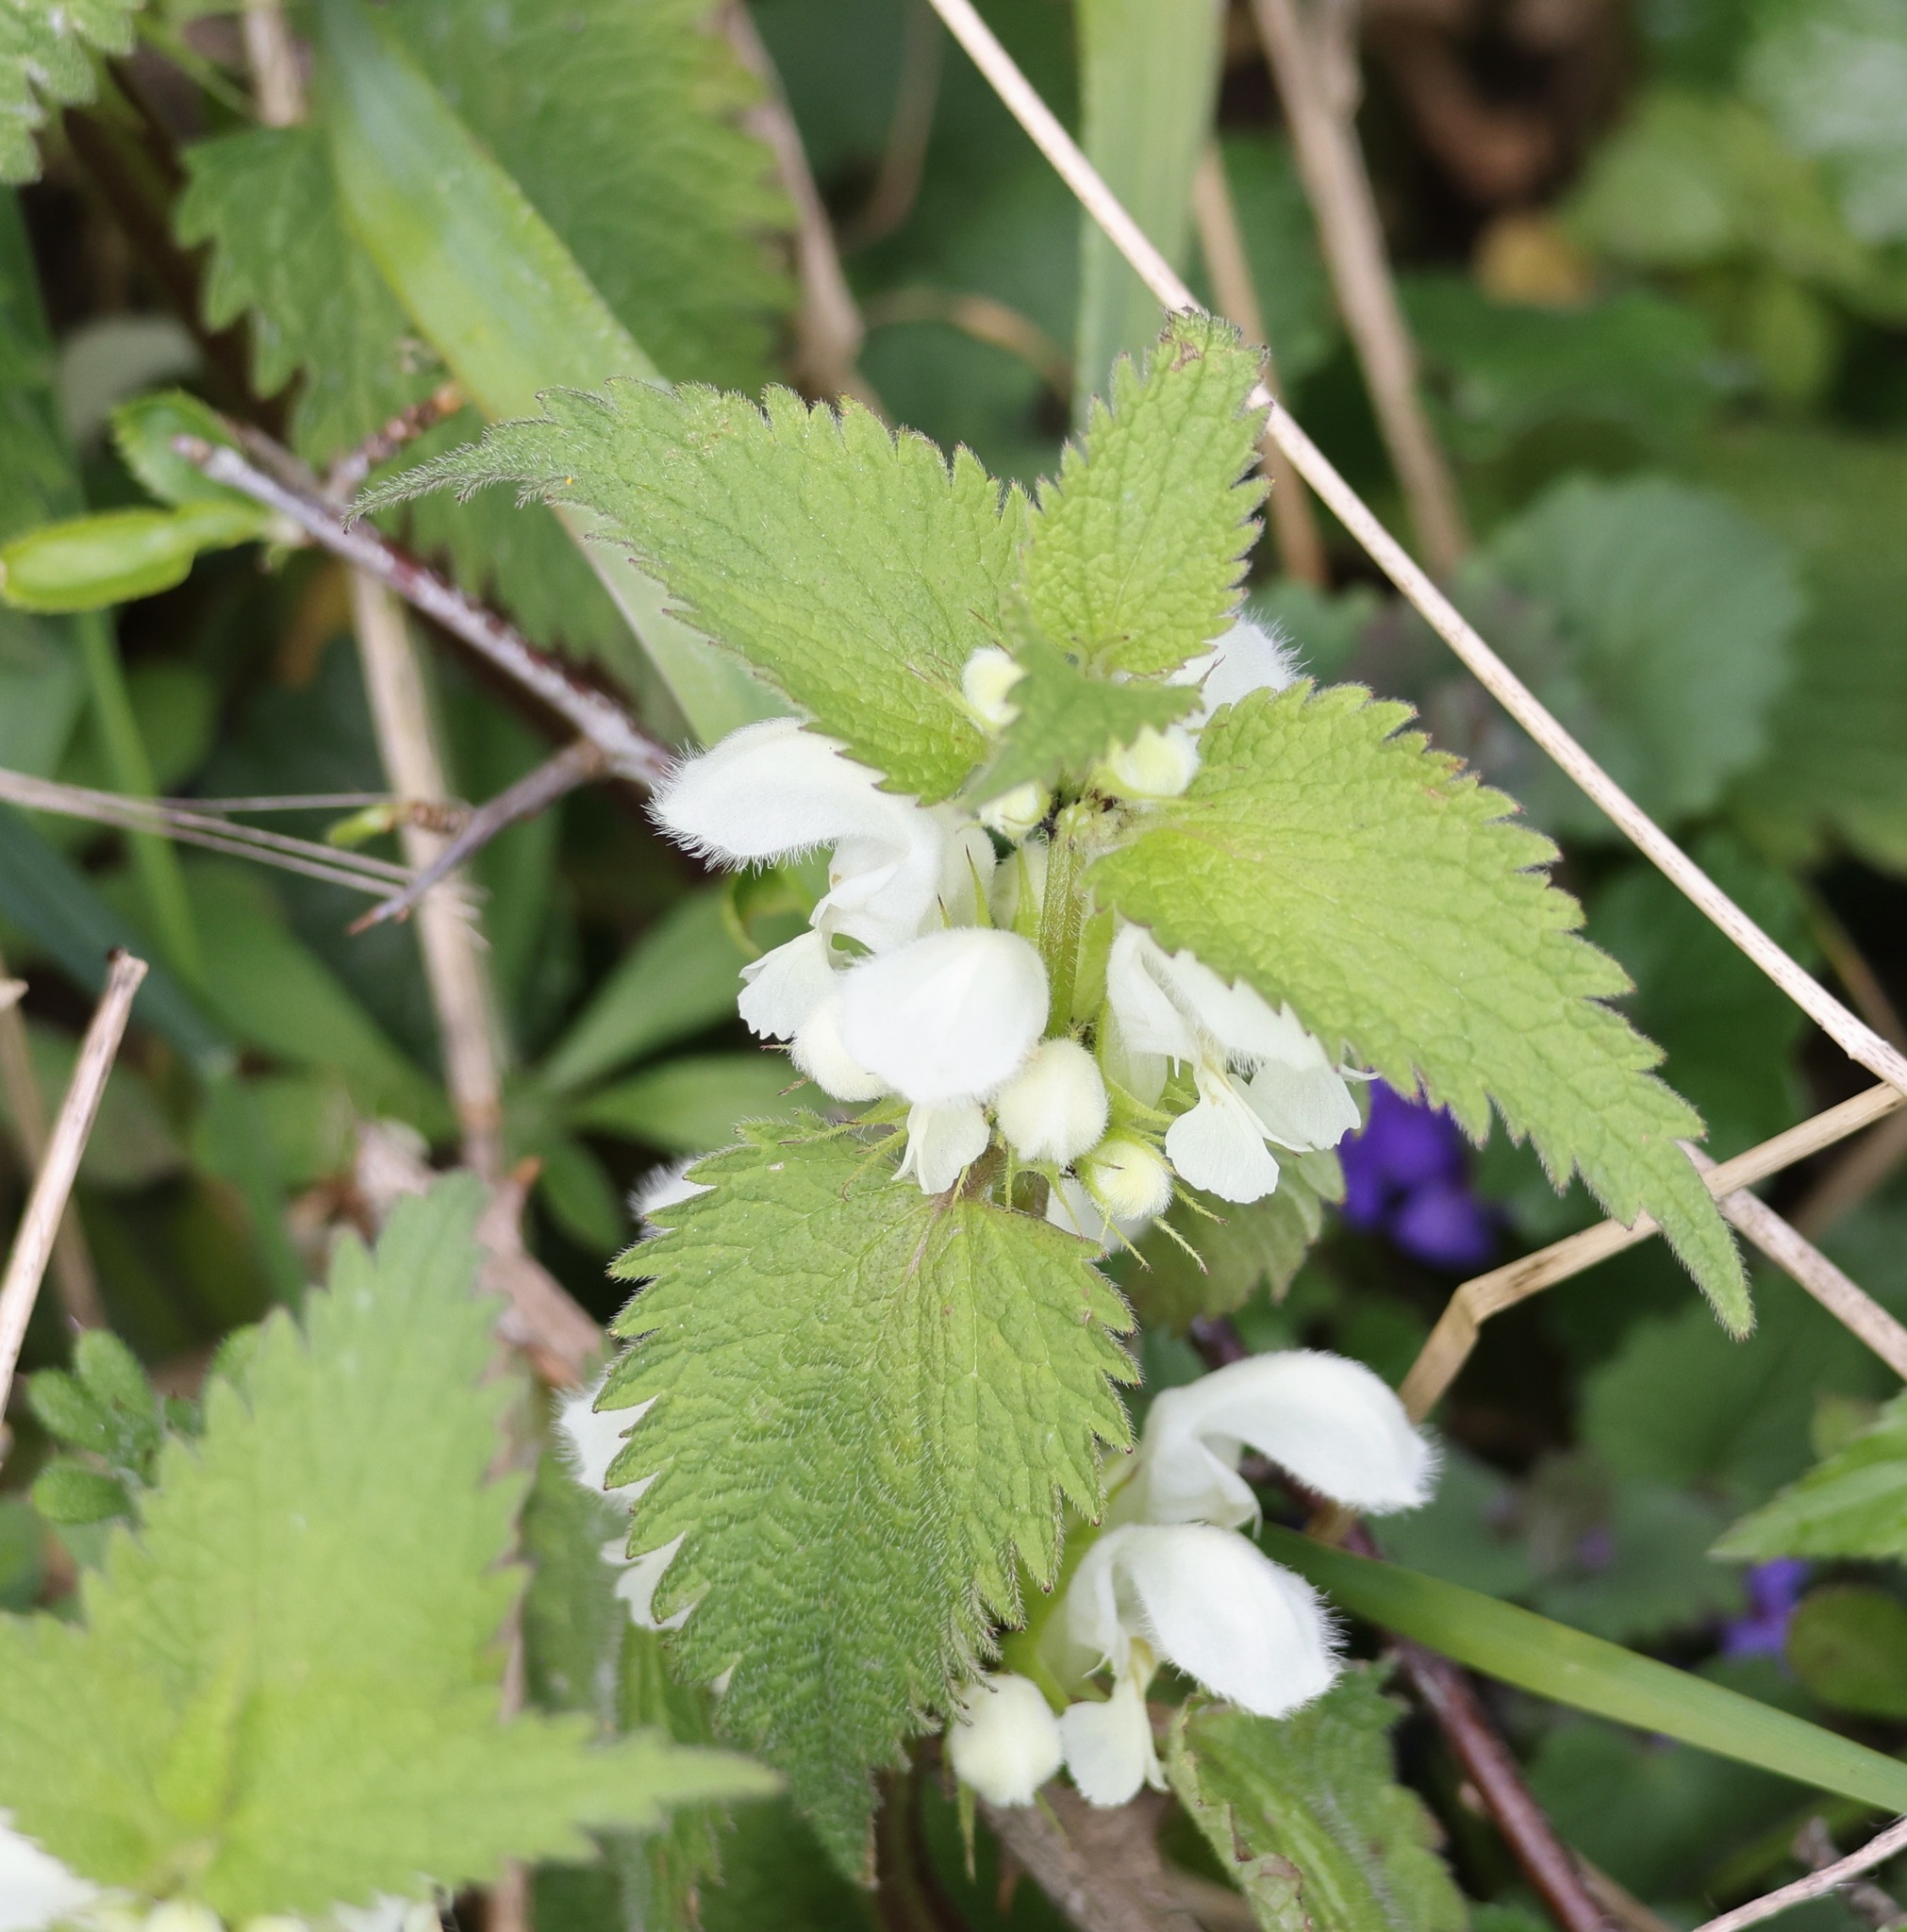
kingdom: Plantae
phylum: Tracheophyta
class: Magnoliopsida
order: Lamiales
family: Lamiaceae
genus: Lamium
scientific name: Lamium album
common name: White dead-nettle
